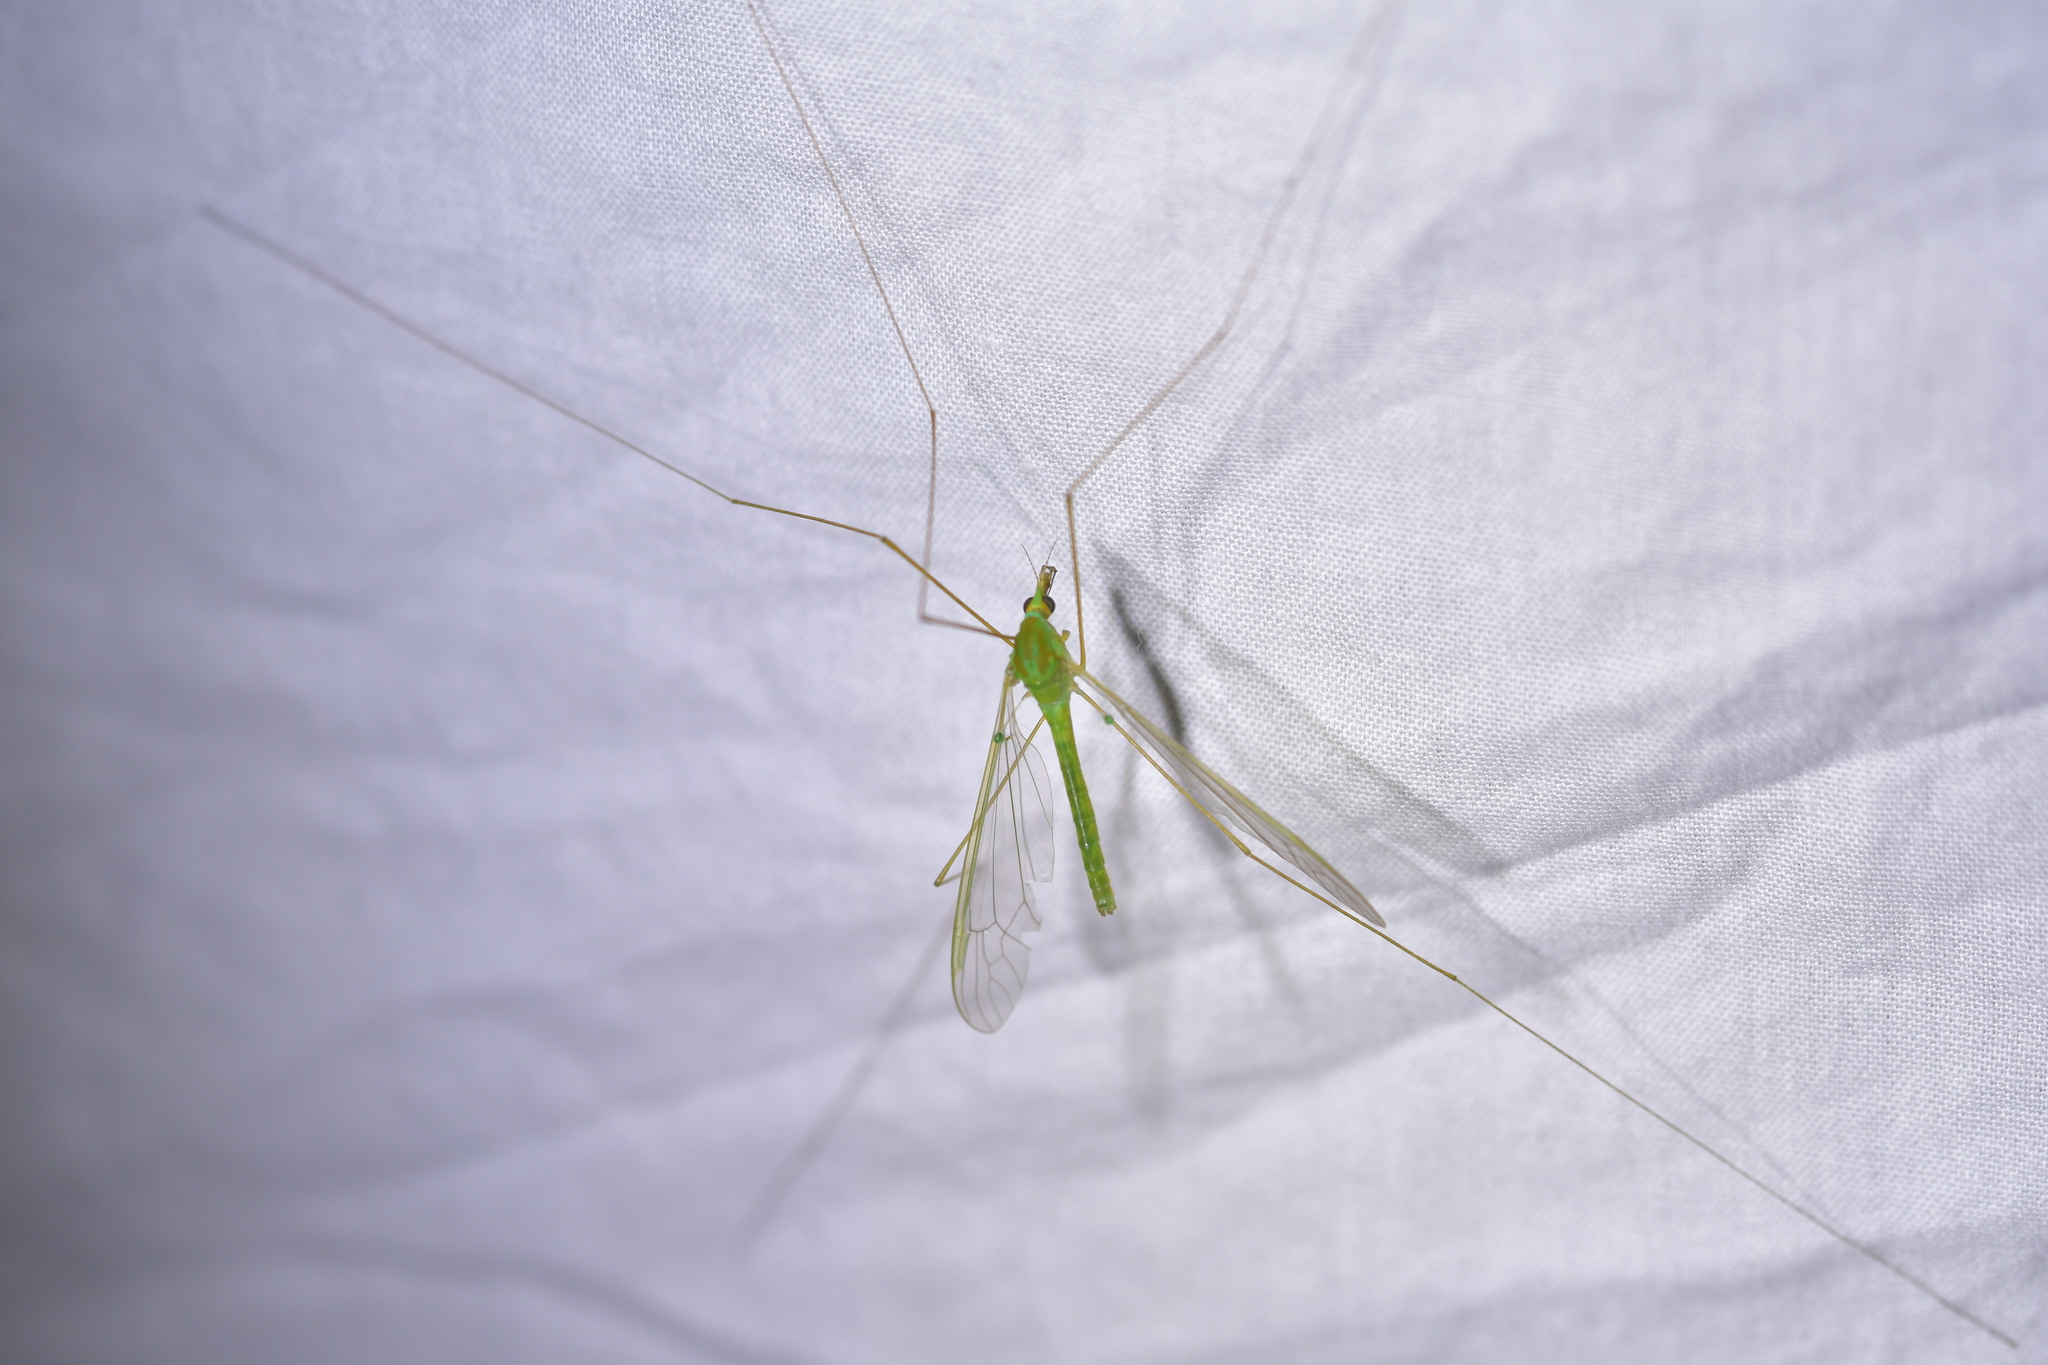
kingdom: Animalia
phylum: Arthropoda
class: Insecta
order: Diptera
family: Tipulidae
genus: Leptotarsus
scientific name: Leptotarsus virescens
